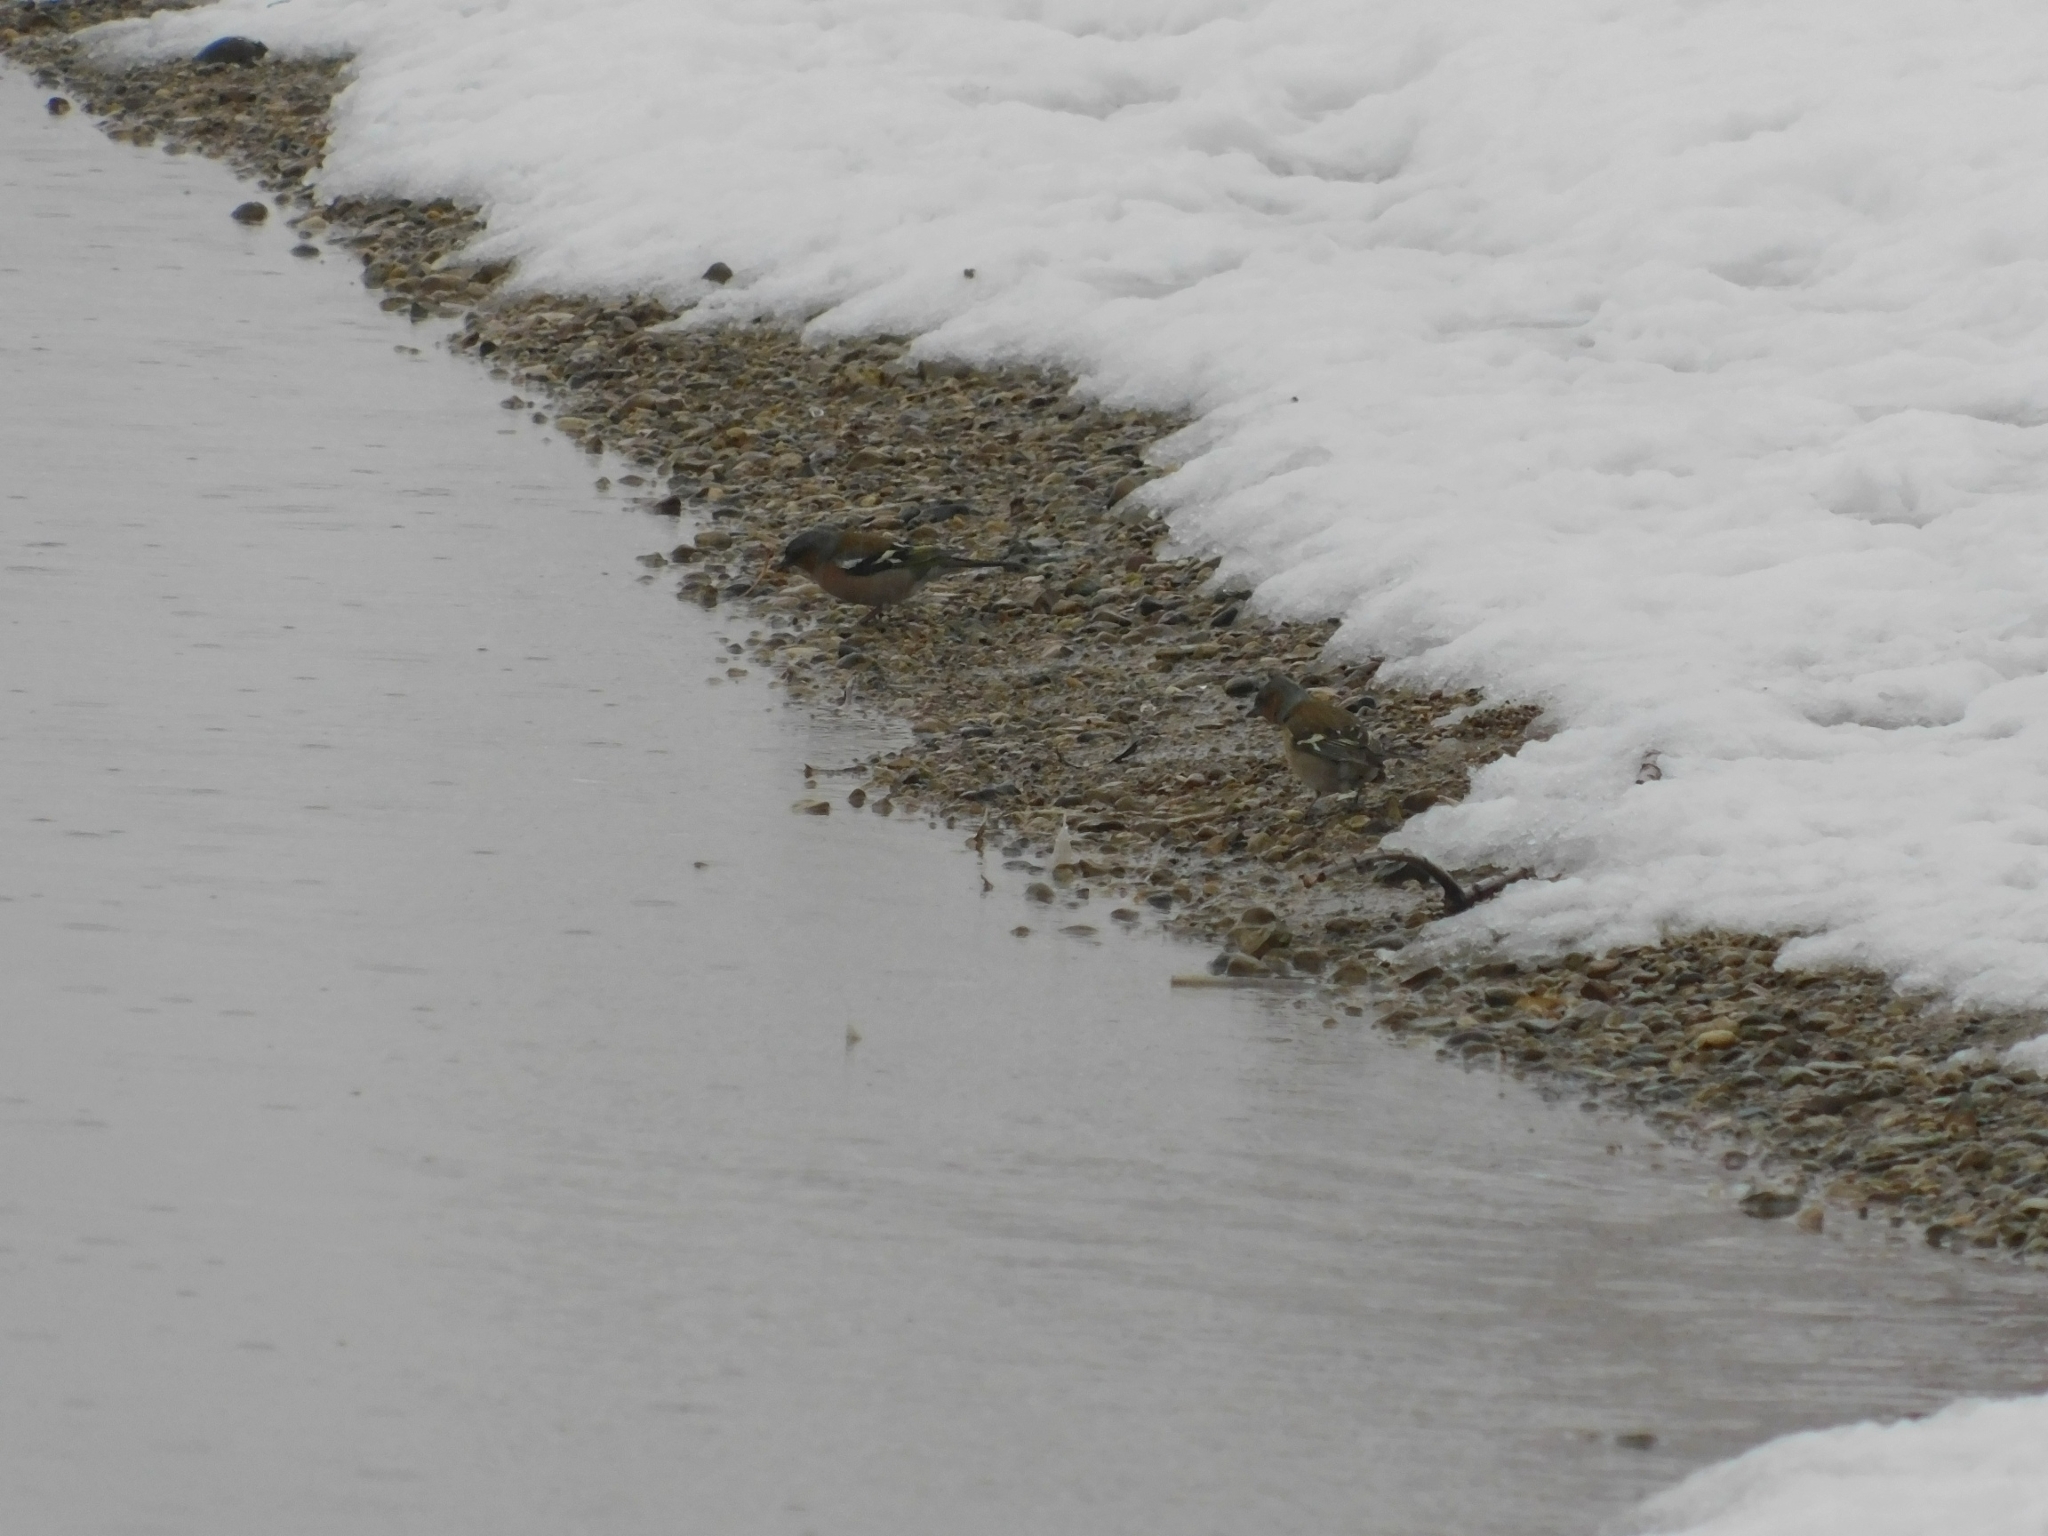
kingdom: Animalia
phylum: Chordata
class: Aves
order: Passeriformes
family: Fringillidae
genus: Fringilla
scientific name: Fringilla coelebs
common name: Common chaffinch
